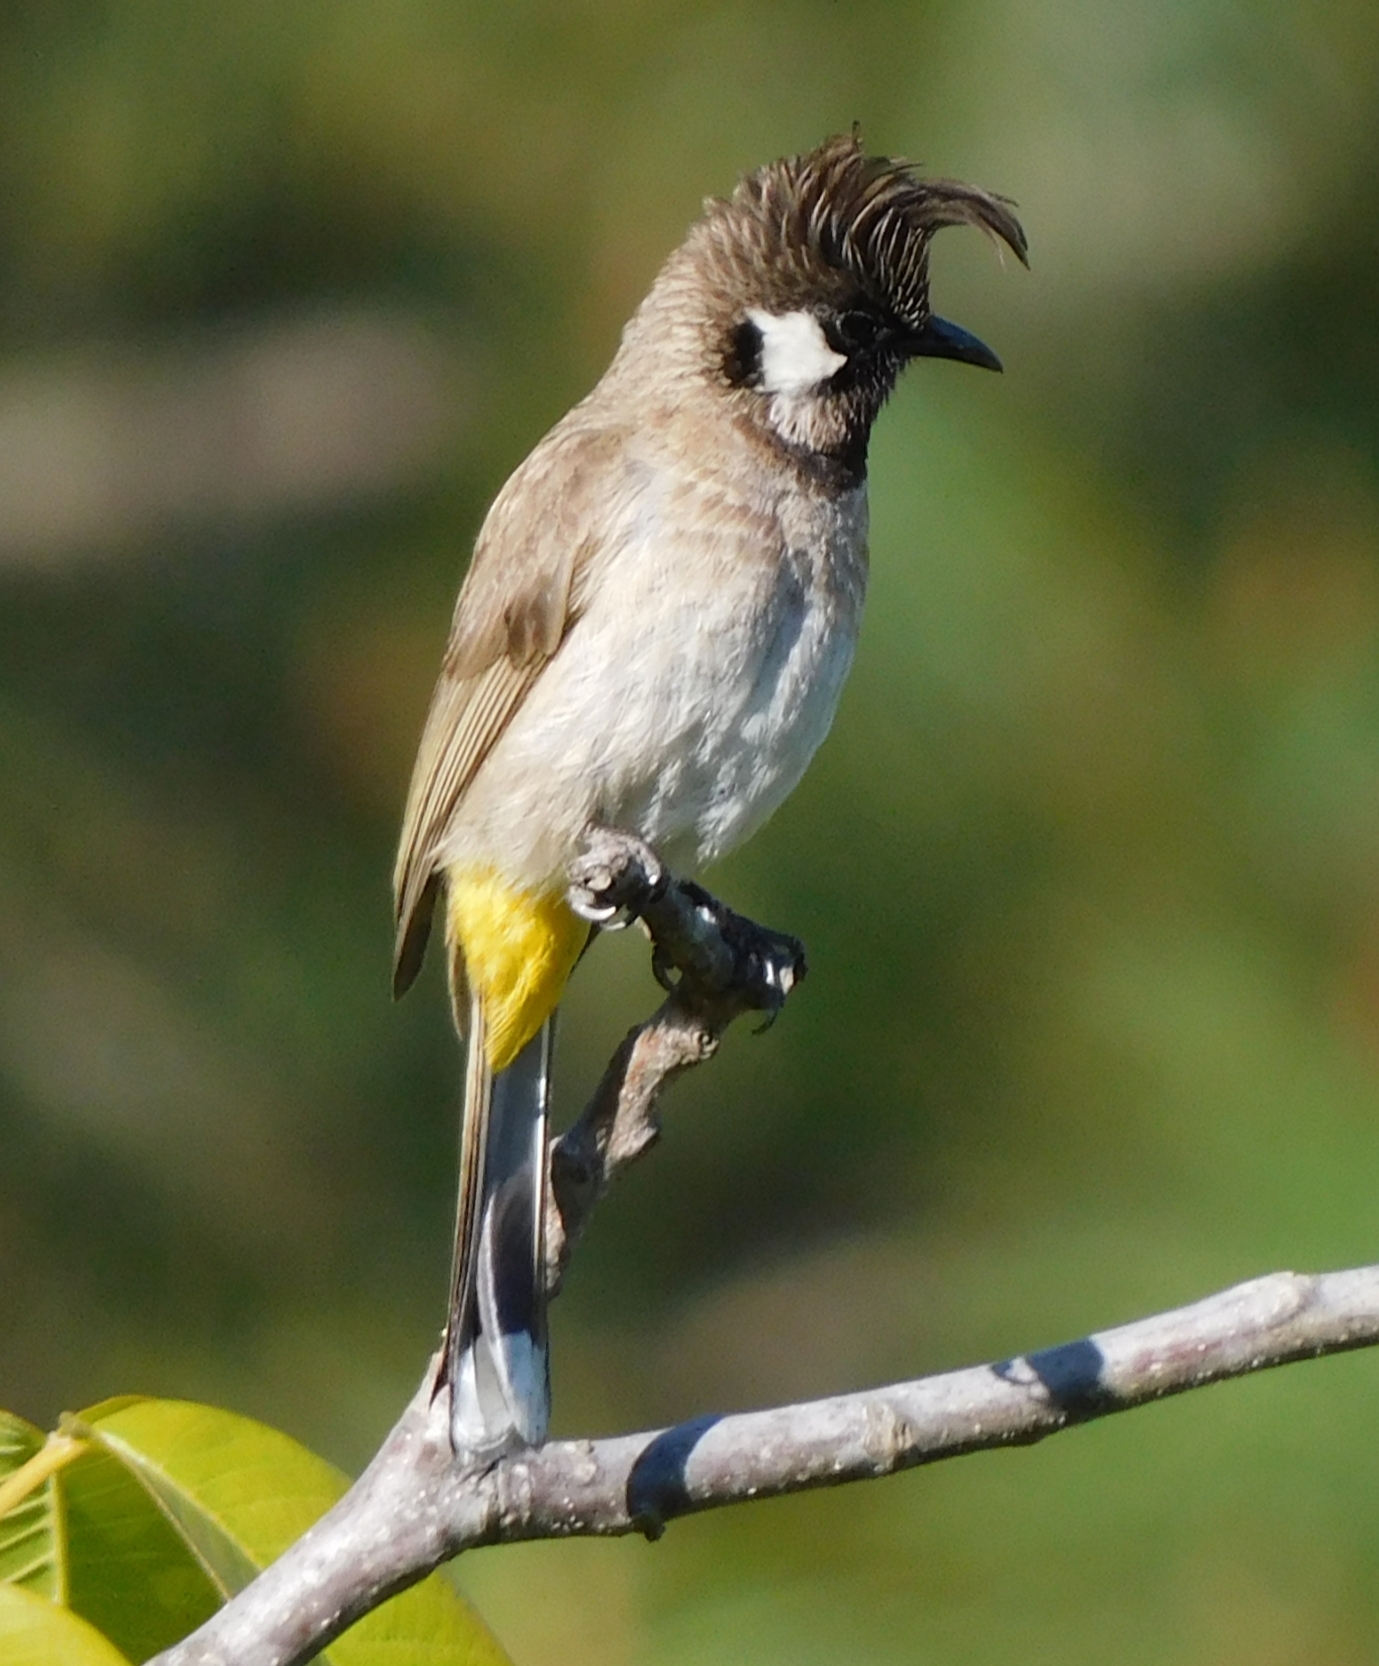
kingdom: Animalia
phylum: Chordata
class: Aves
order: Passeriformes
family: Pycnonotidae
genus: Pycnonotus
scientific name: Pycnonotus leucogenys
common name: Himalayan bulbul
